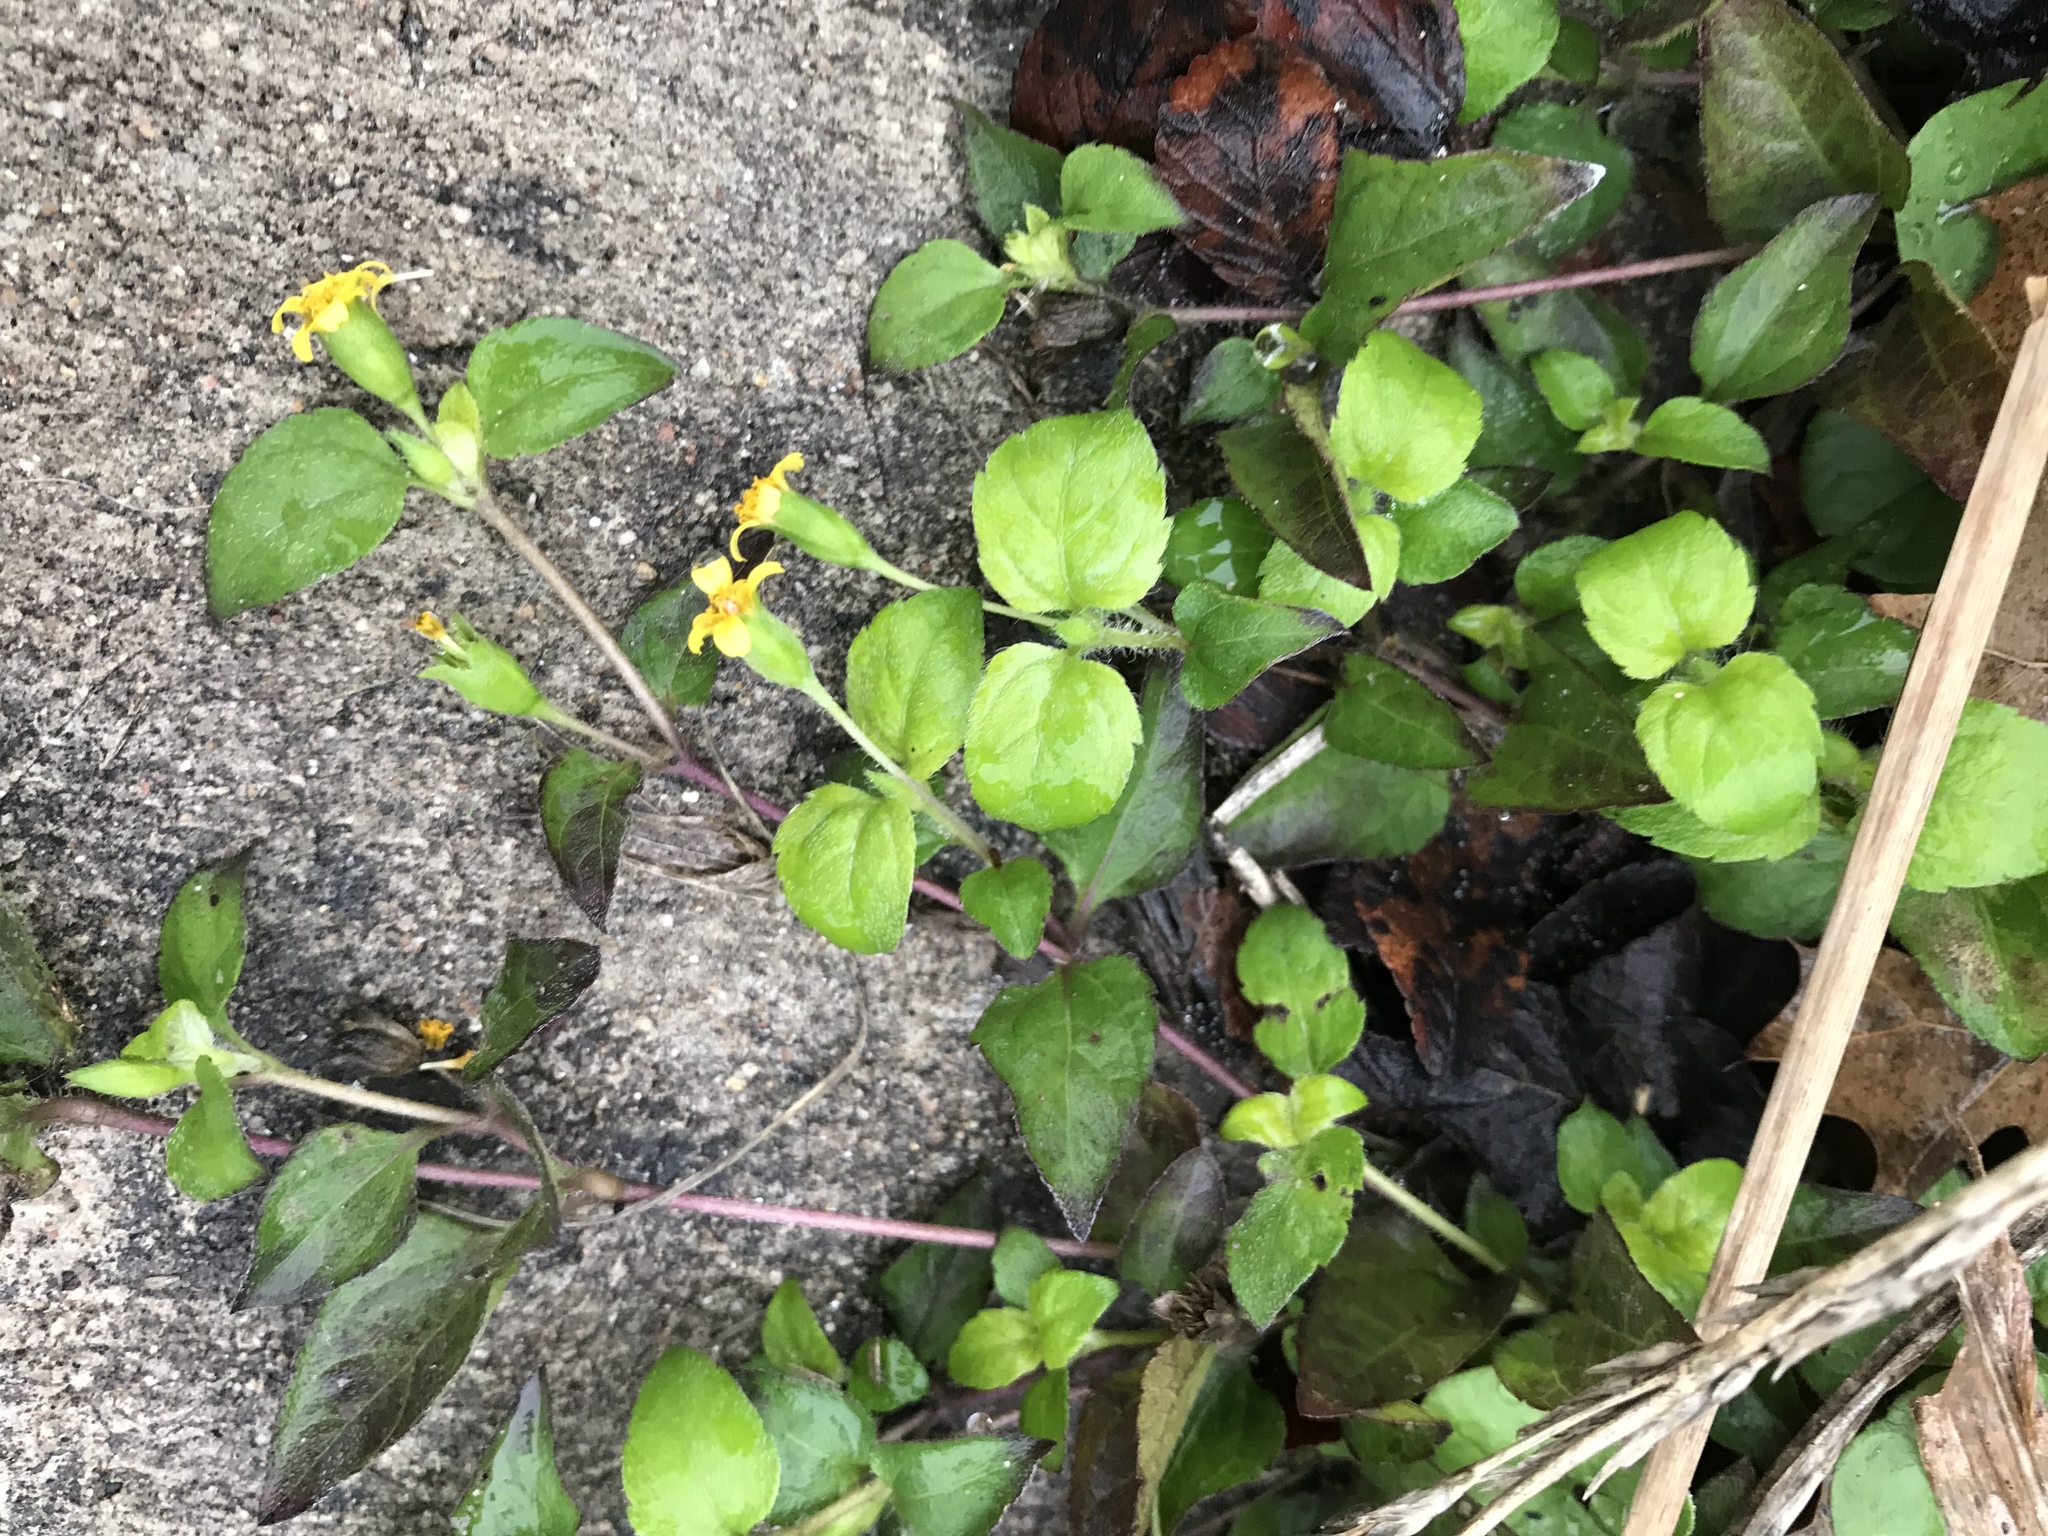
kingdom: Plantae
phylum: Tracheophyta
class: Magnoliopsida
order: Asterales
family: Asteraceae
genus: Calyptocarpus
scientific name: Calyptocarpus vialis
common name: Straggler daisy
